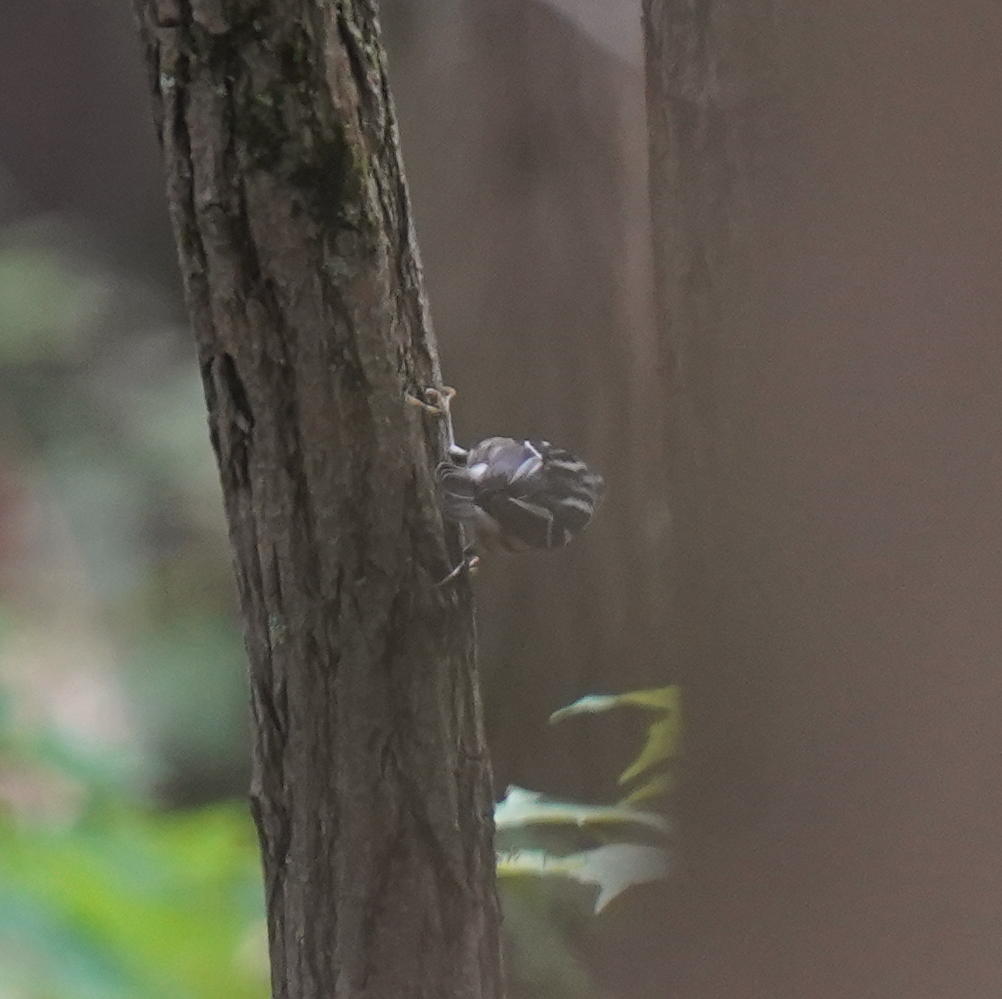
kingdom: Animalia
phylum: Chordata
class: Aves
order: Passeriformes
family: Parulidae
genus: Mniotilta
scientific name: Mniotilta varia
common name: Black-and-white warbler
